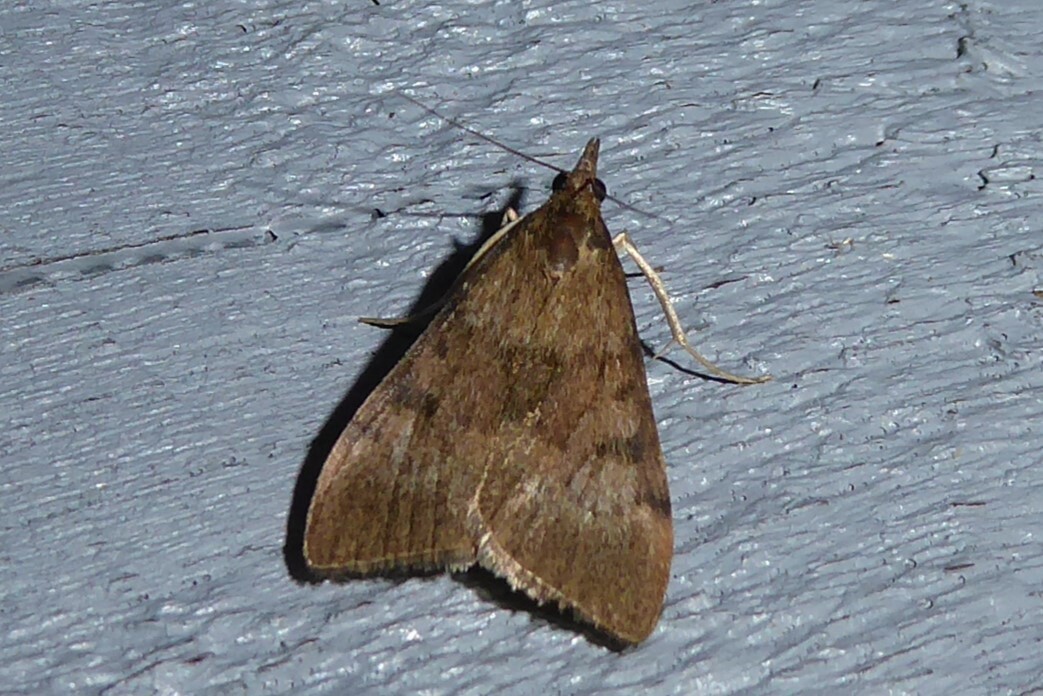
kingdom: Animalia
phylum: Arthropoda
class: Insecta
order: Lepidoptera
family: Crambidae
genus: Uresiphita
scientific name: Uresiphita
